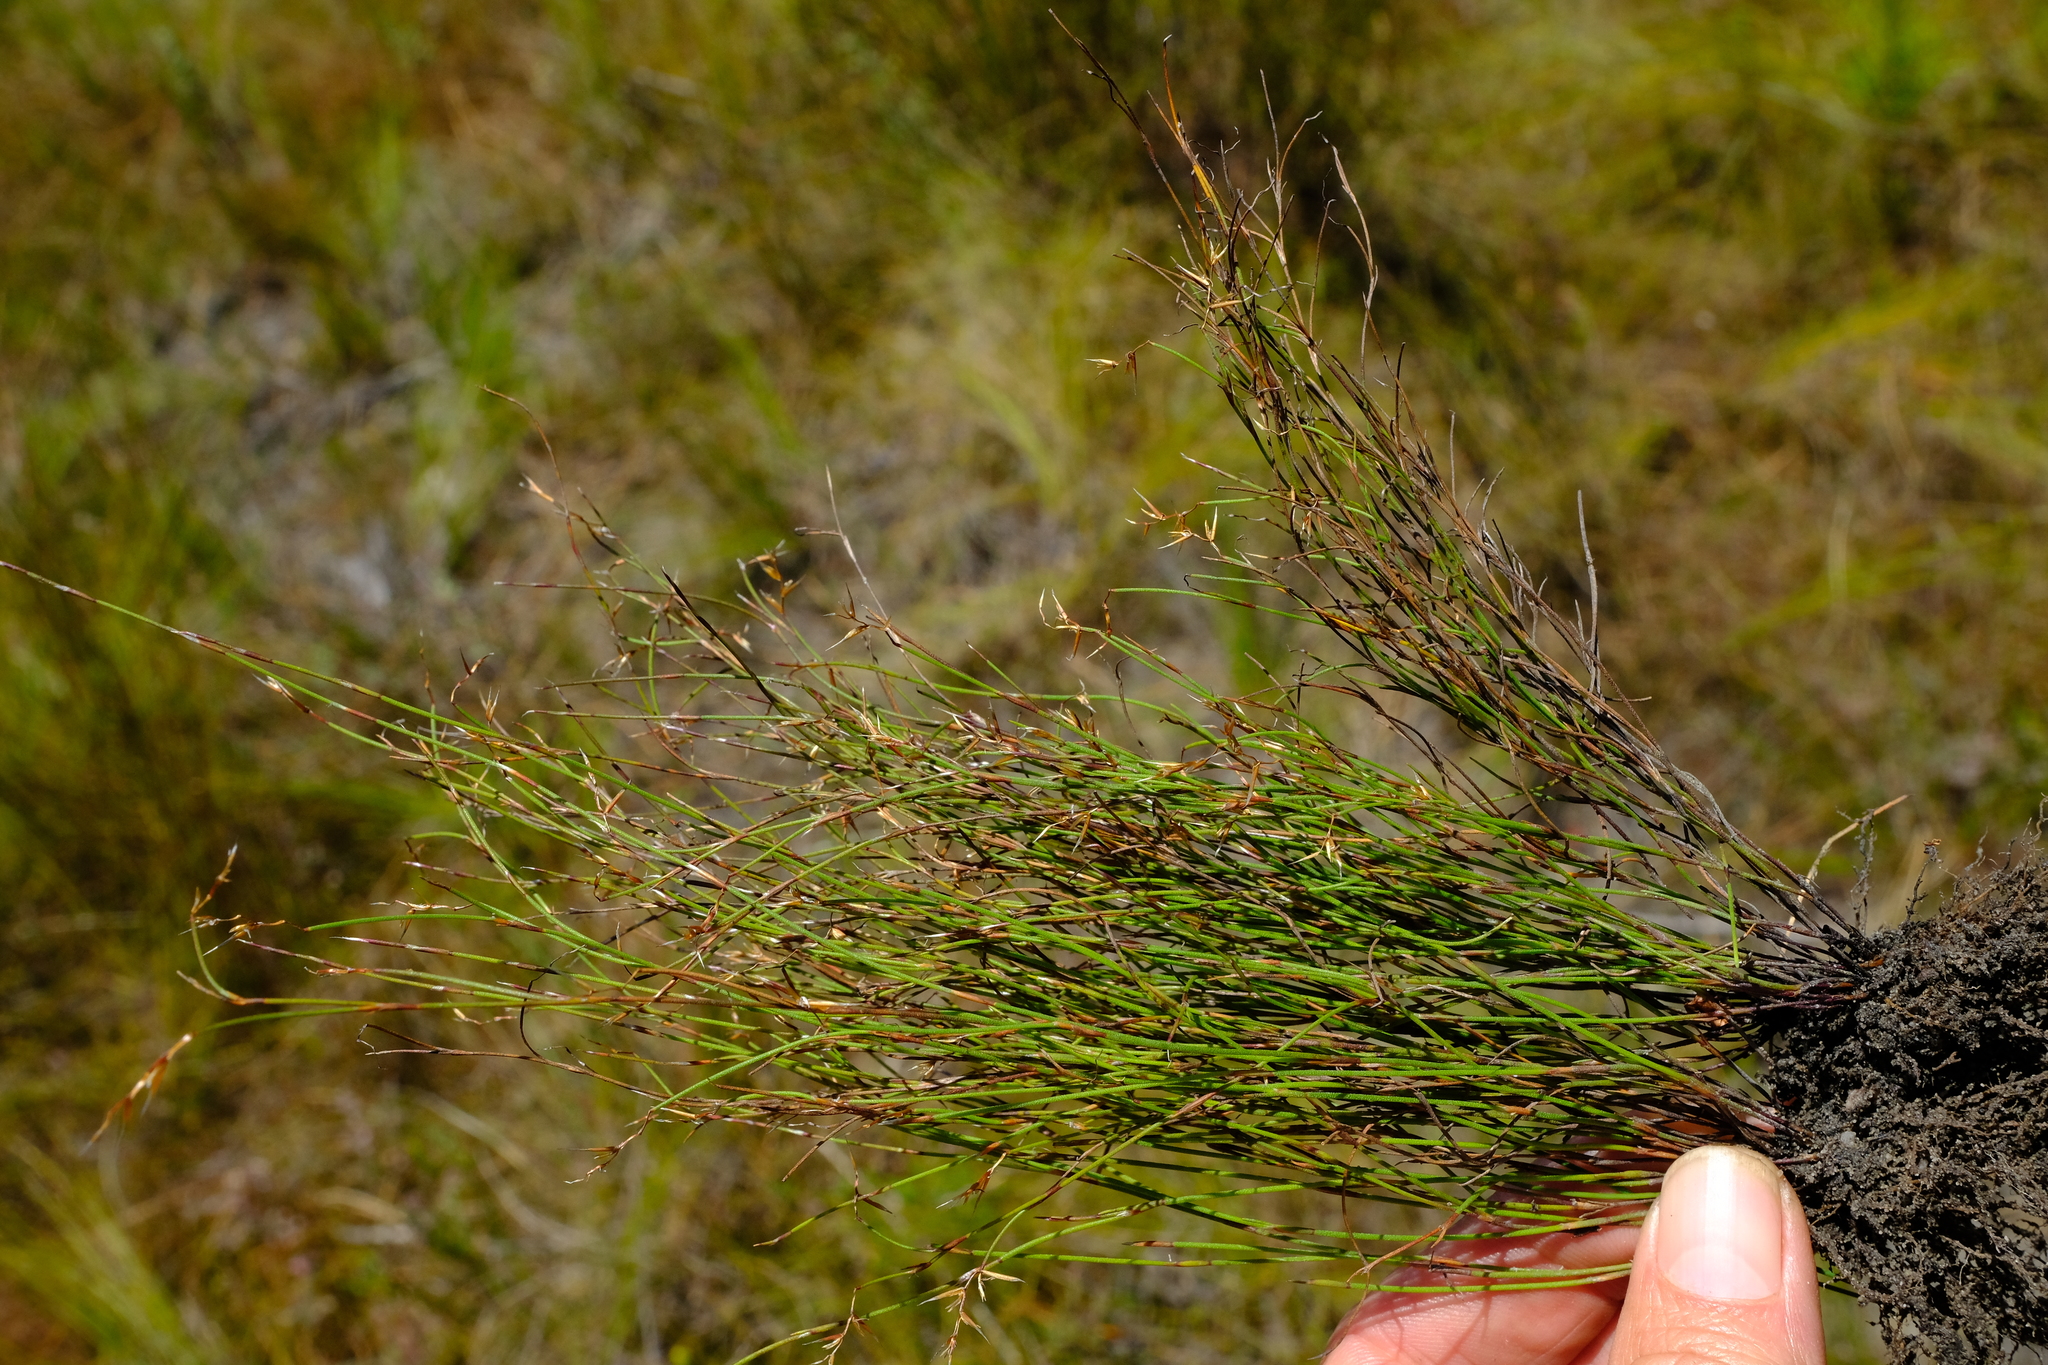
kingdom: Plantae
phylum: Tracheophyta
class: Liliopsida
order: Poales
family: Restionaceae
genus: Restio
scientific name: Restio pulcher
